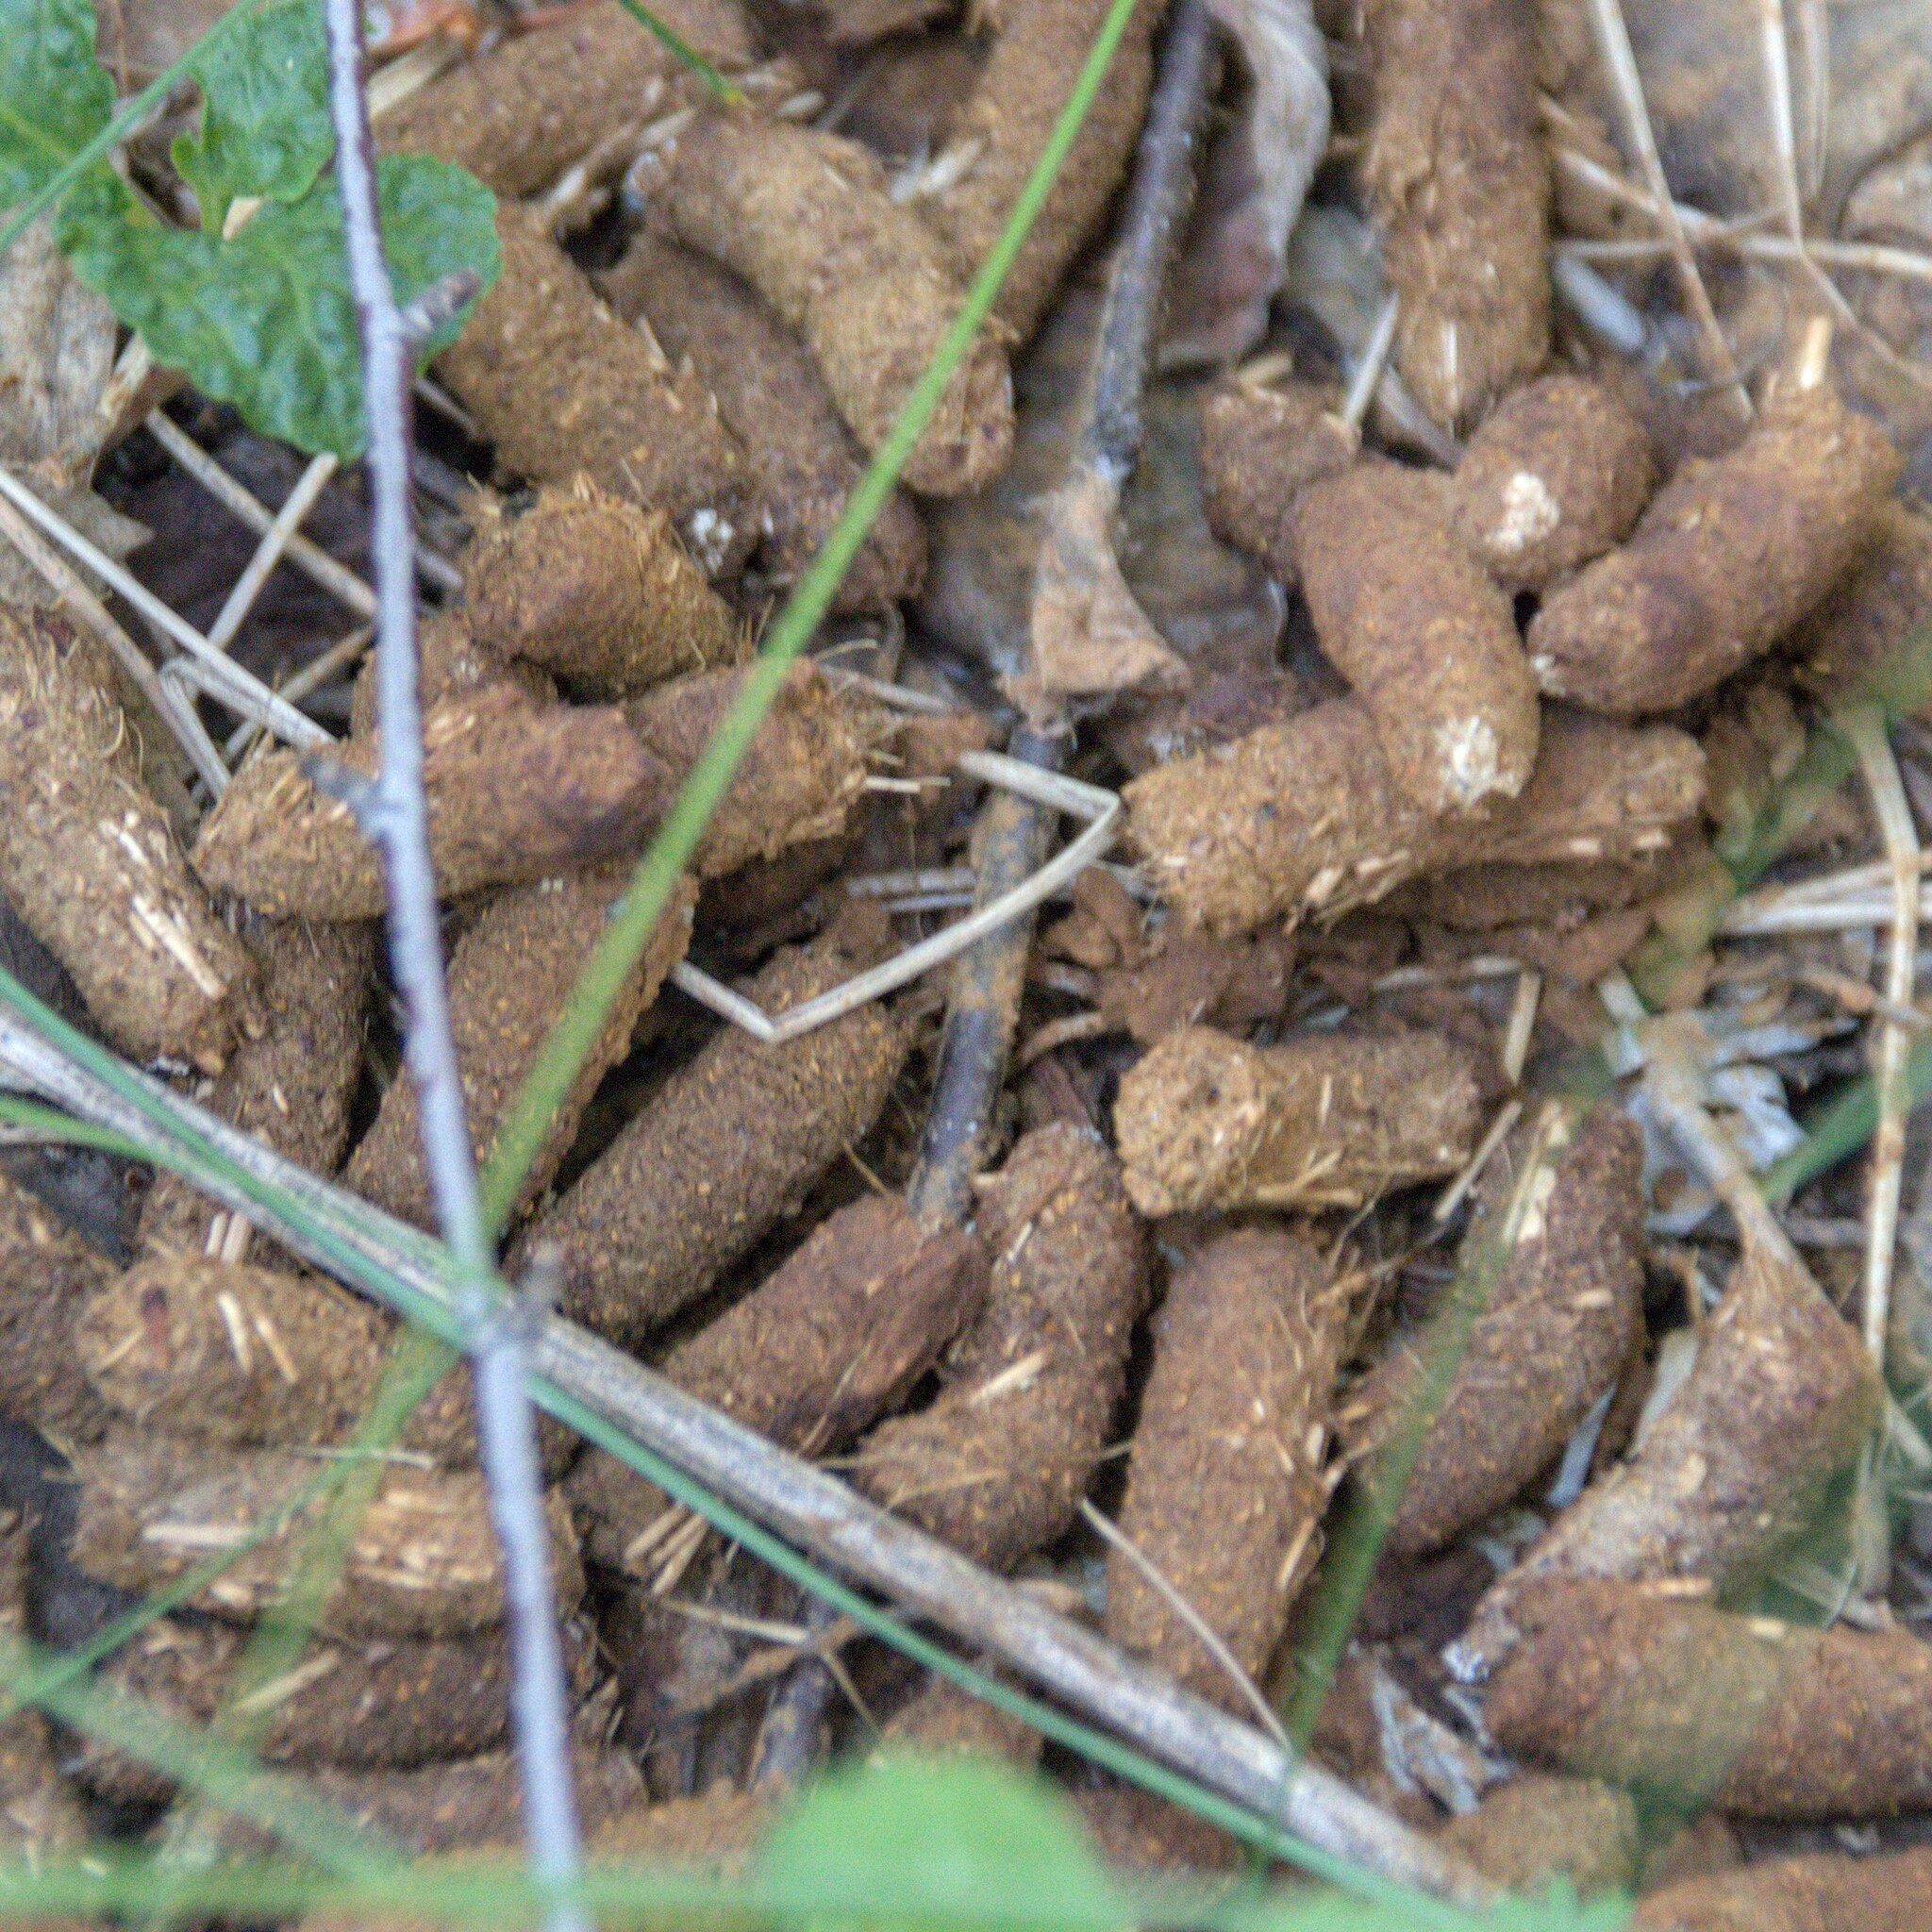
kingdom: Animalia
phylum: Chordata
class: Aves
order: Galliformes
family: Phasianidae
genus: Lyrurus
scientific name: Lyrurus tetrix
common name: Black grouse
